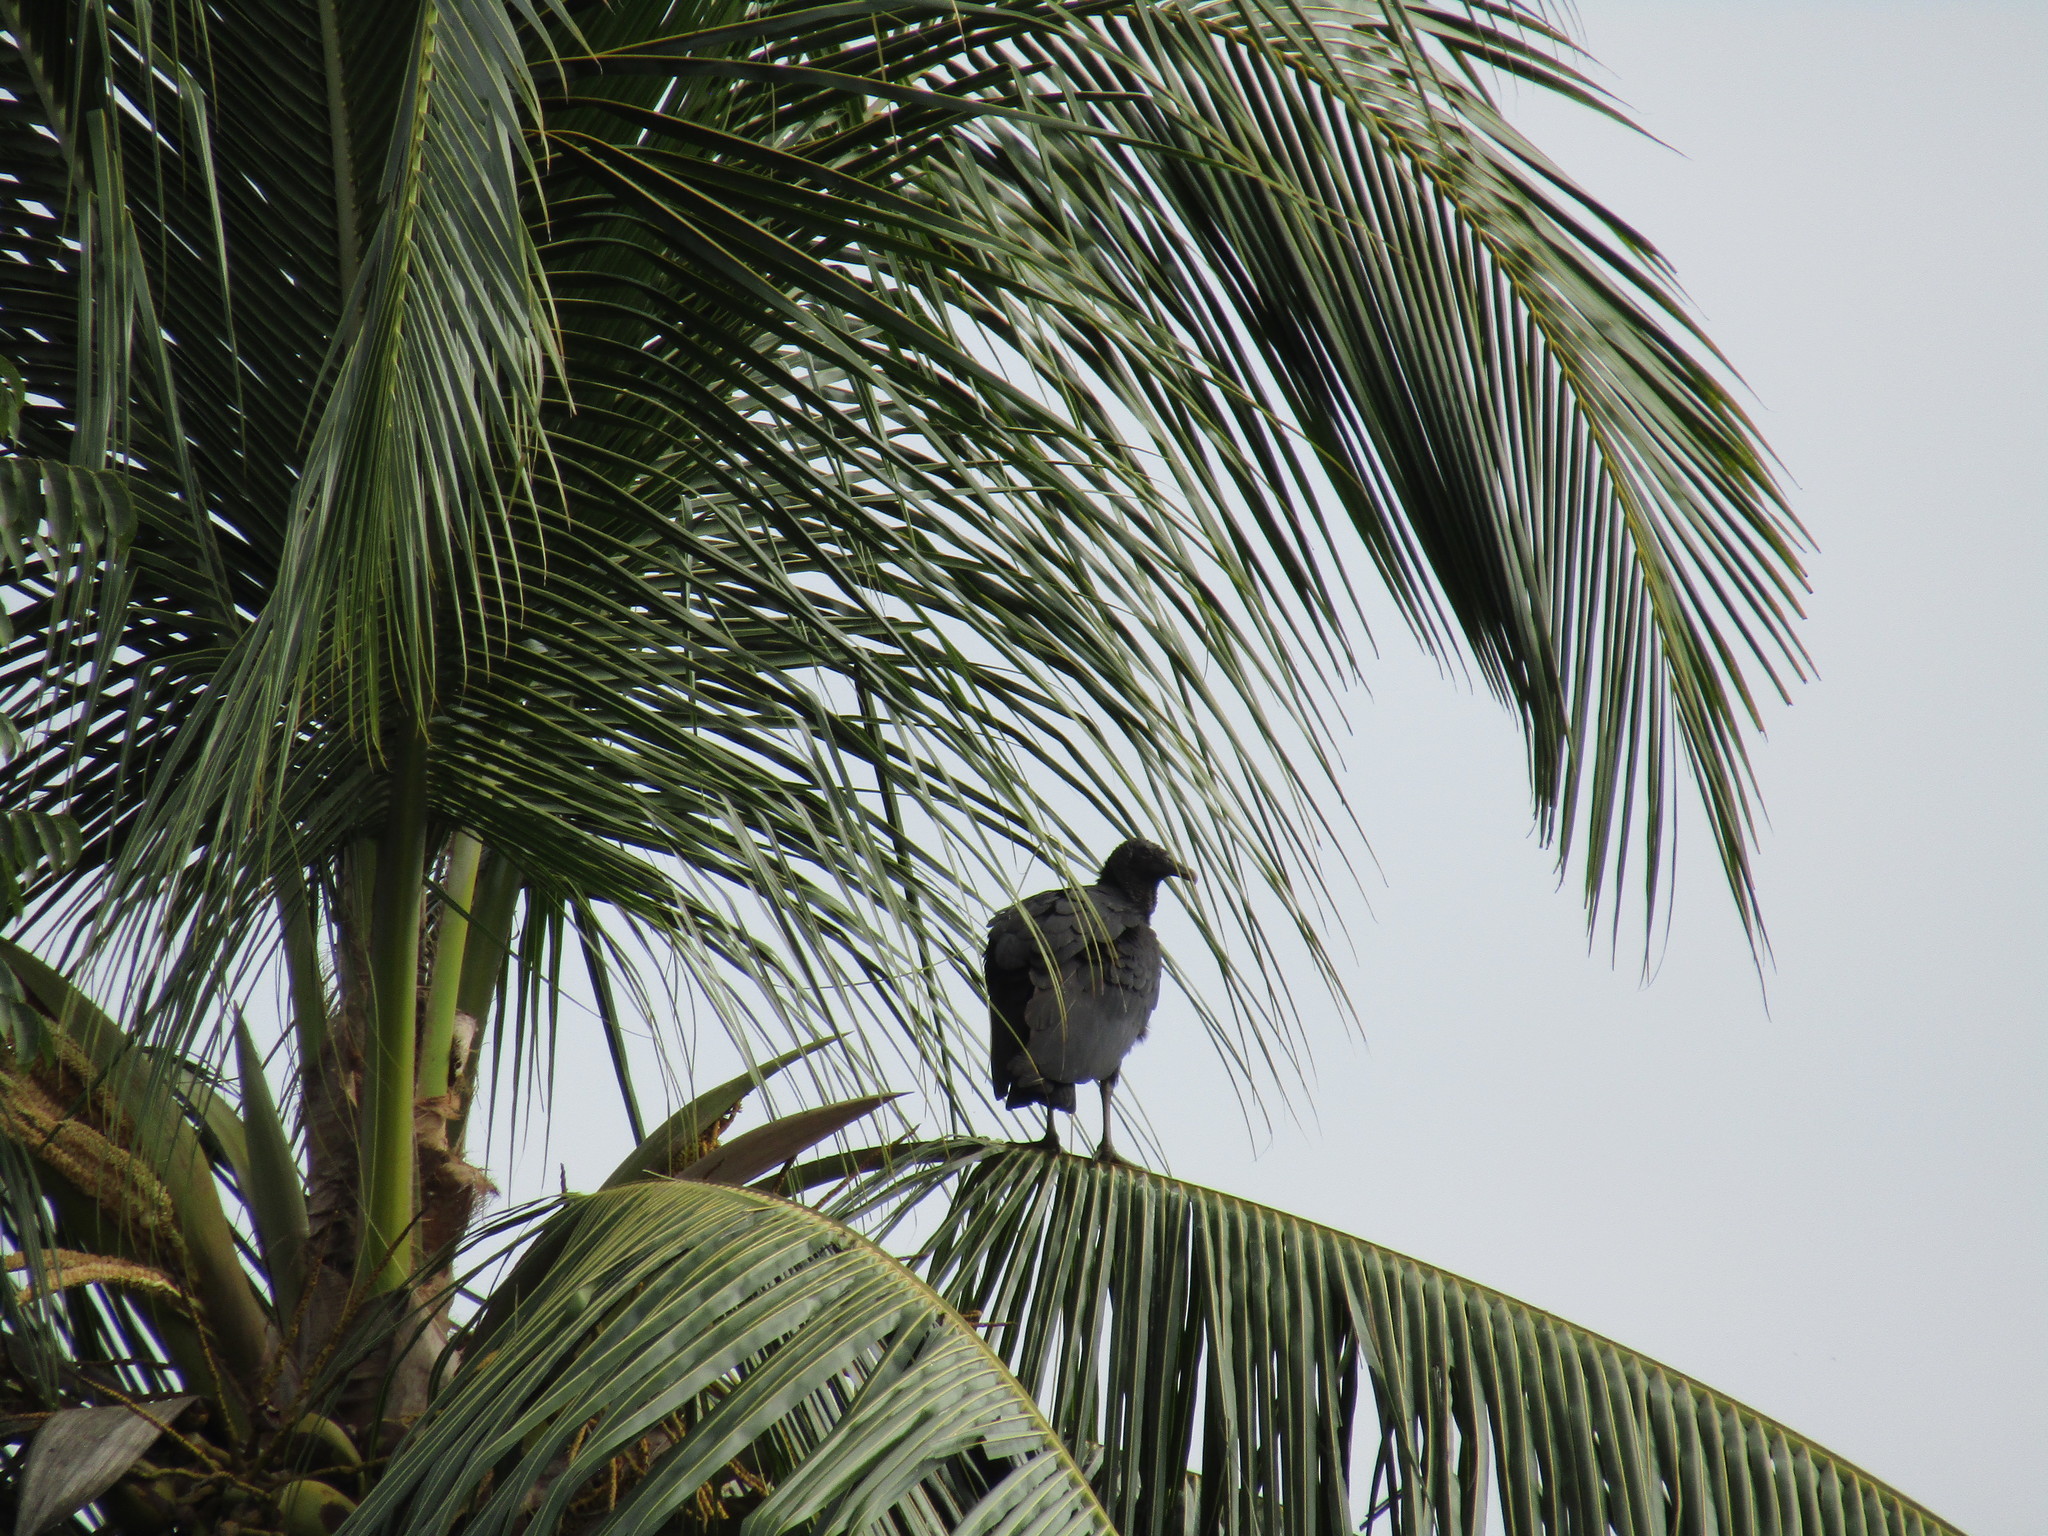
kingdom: Animalia
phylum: Chordata
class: Aves
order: Accipitriformes
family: Cathartidae
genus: Coragyps
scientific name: Coragyps atratus
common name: Black vulture
